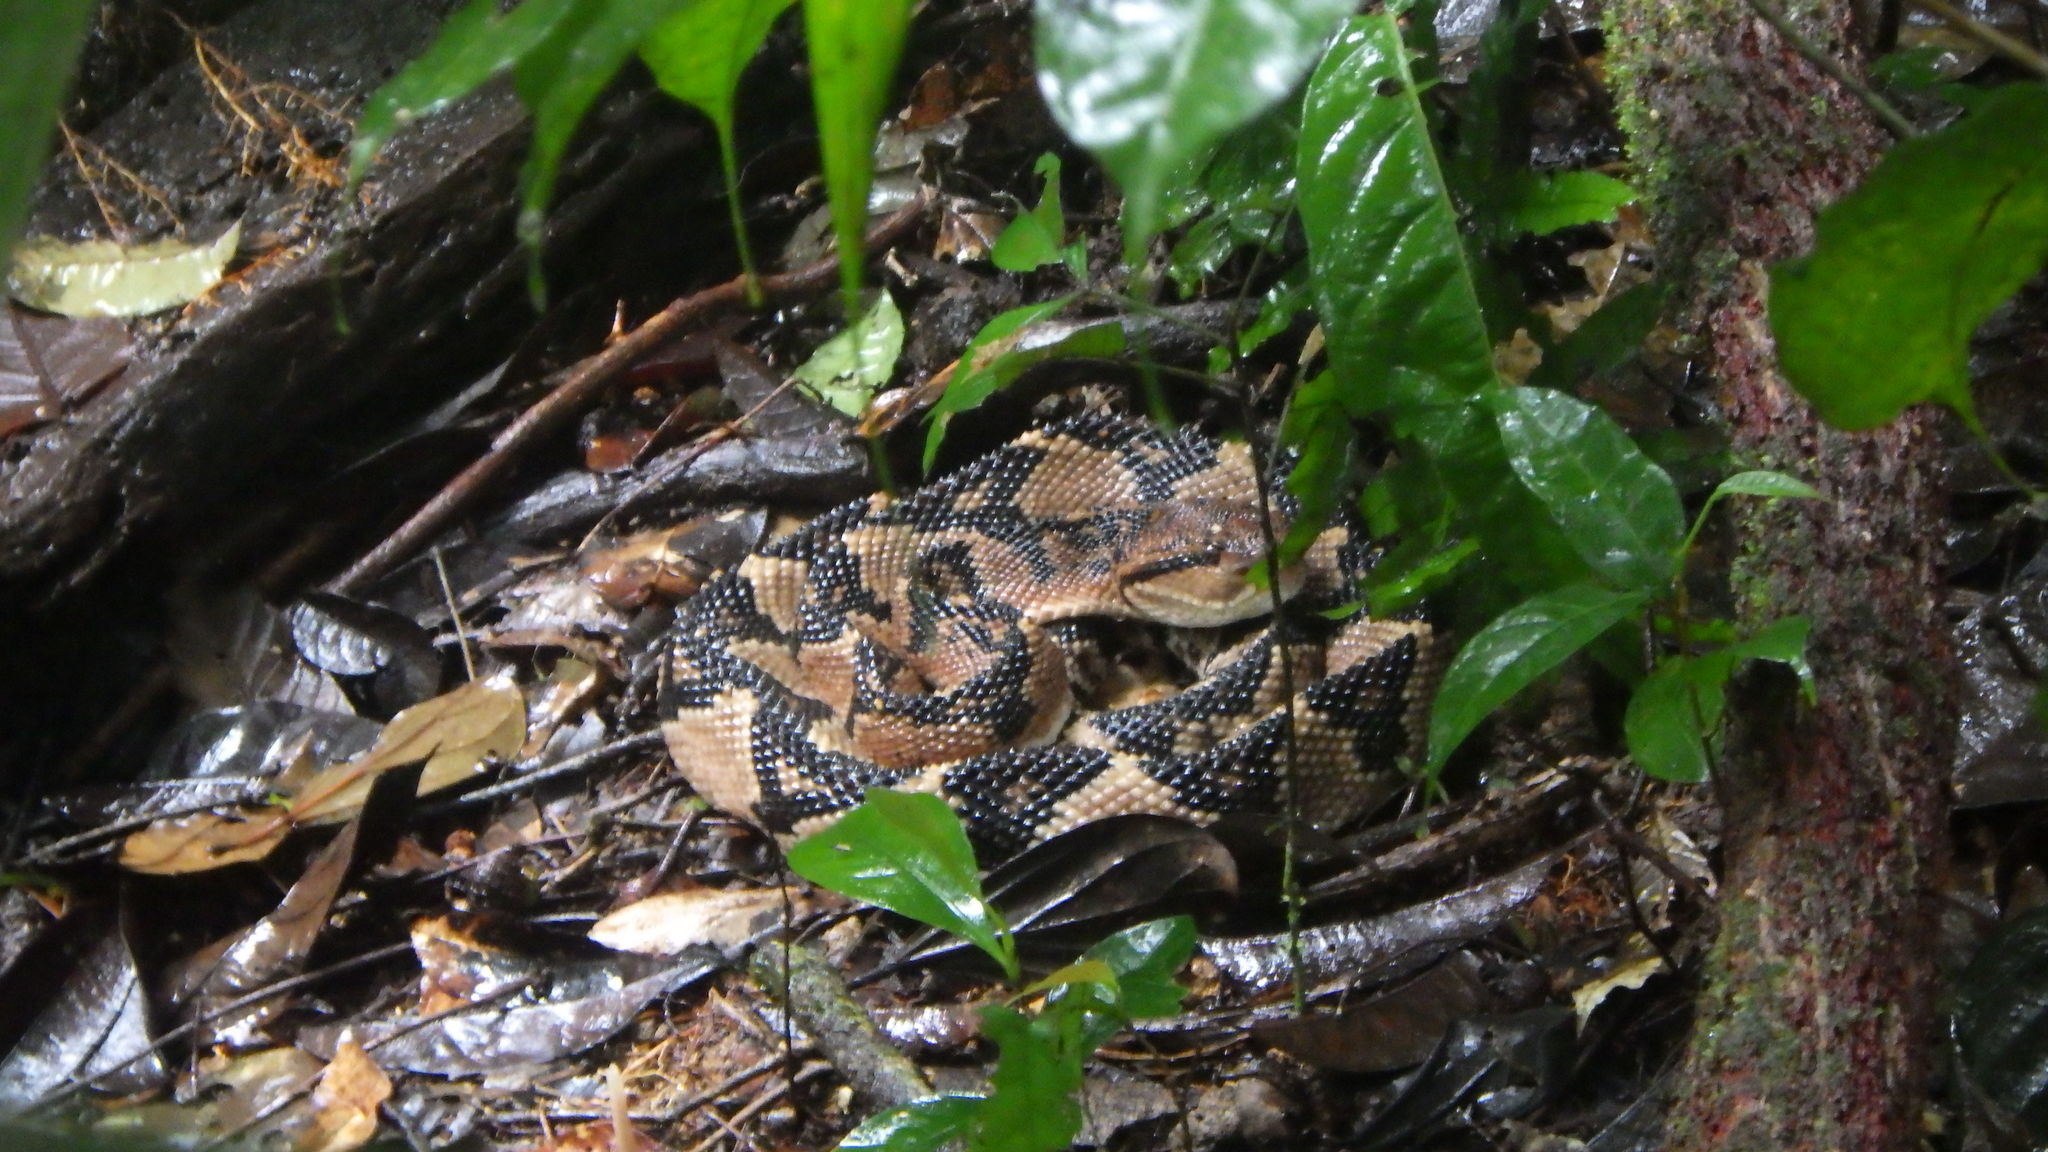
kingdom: Animalia
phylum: Chordata
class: Squamata
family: Viperidae
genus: Lachesis
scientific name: Lachesis muta
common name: South american bushmaster
